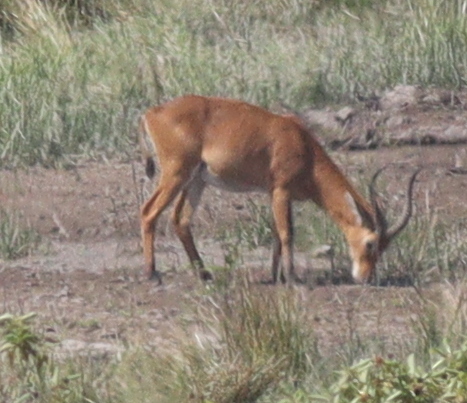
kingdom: Animalia
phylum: Chordata
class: Mammalia
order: Artiodactyla
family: Bovidae
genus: Kobus
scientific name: Kobus kob
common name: Kob
